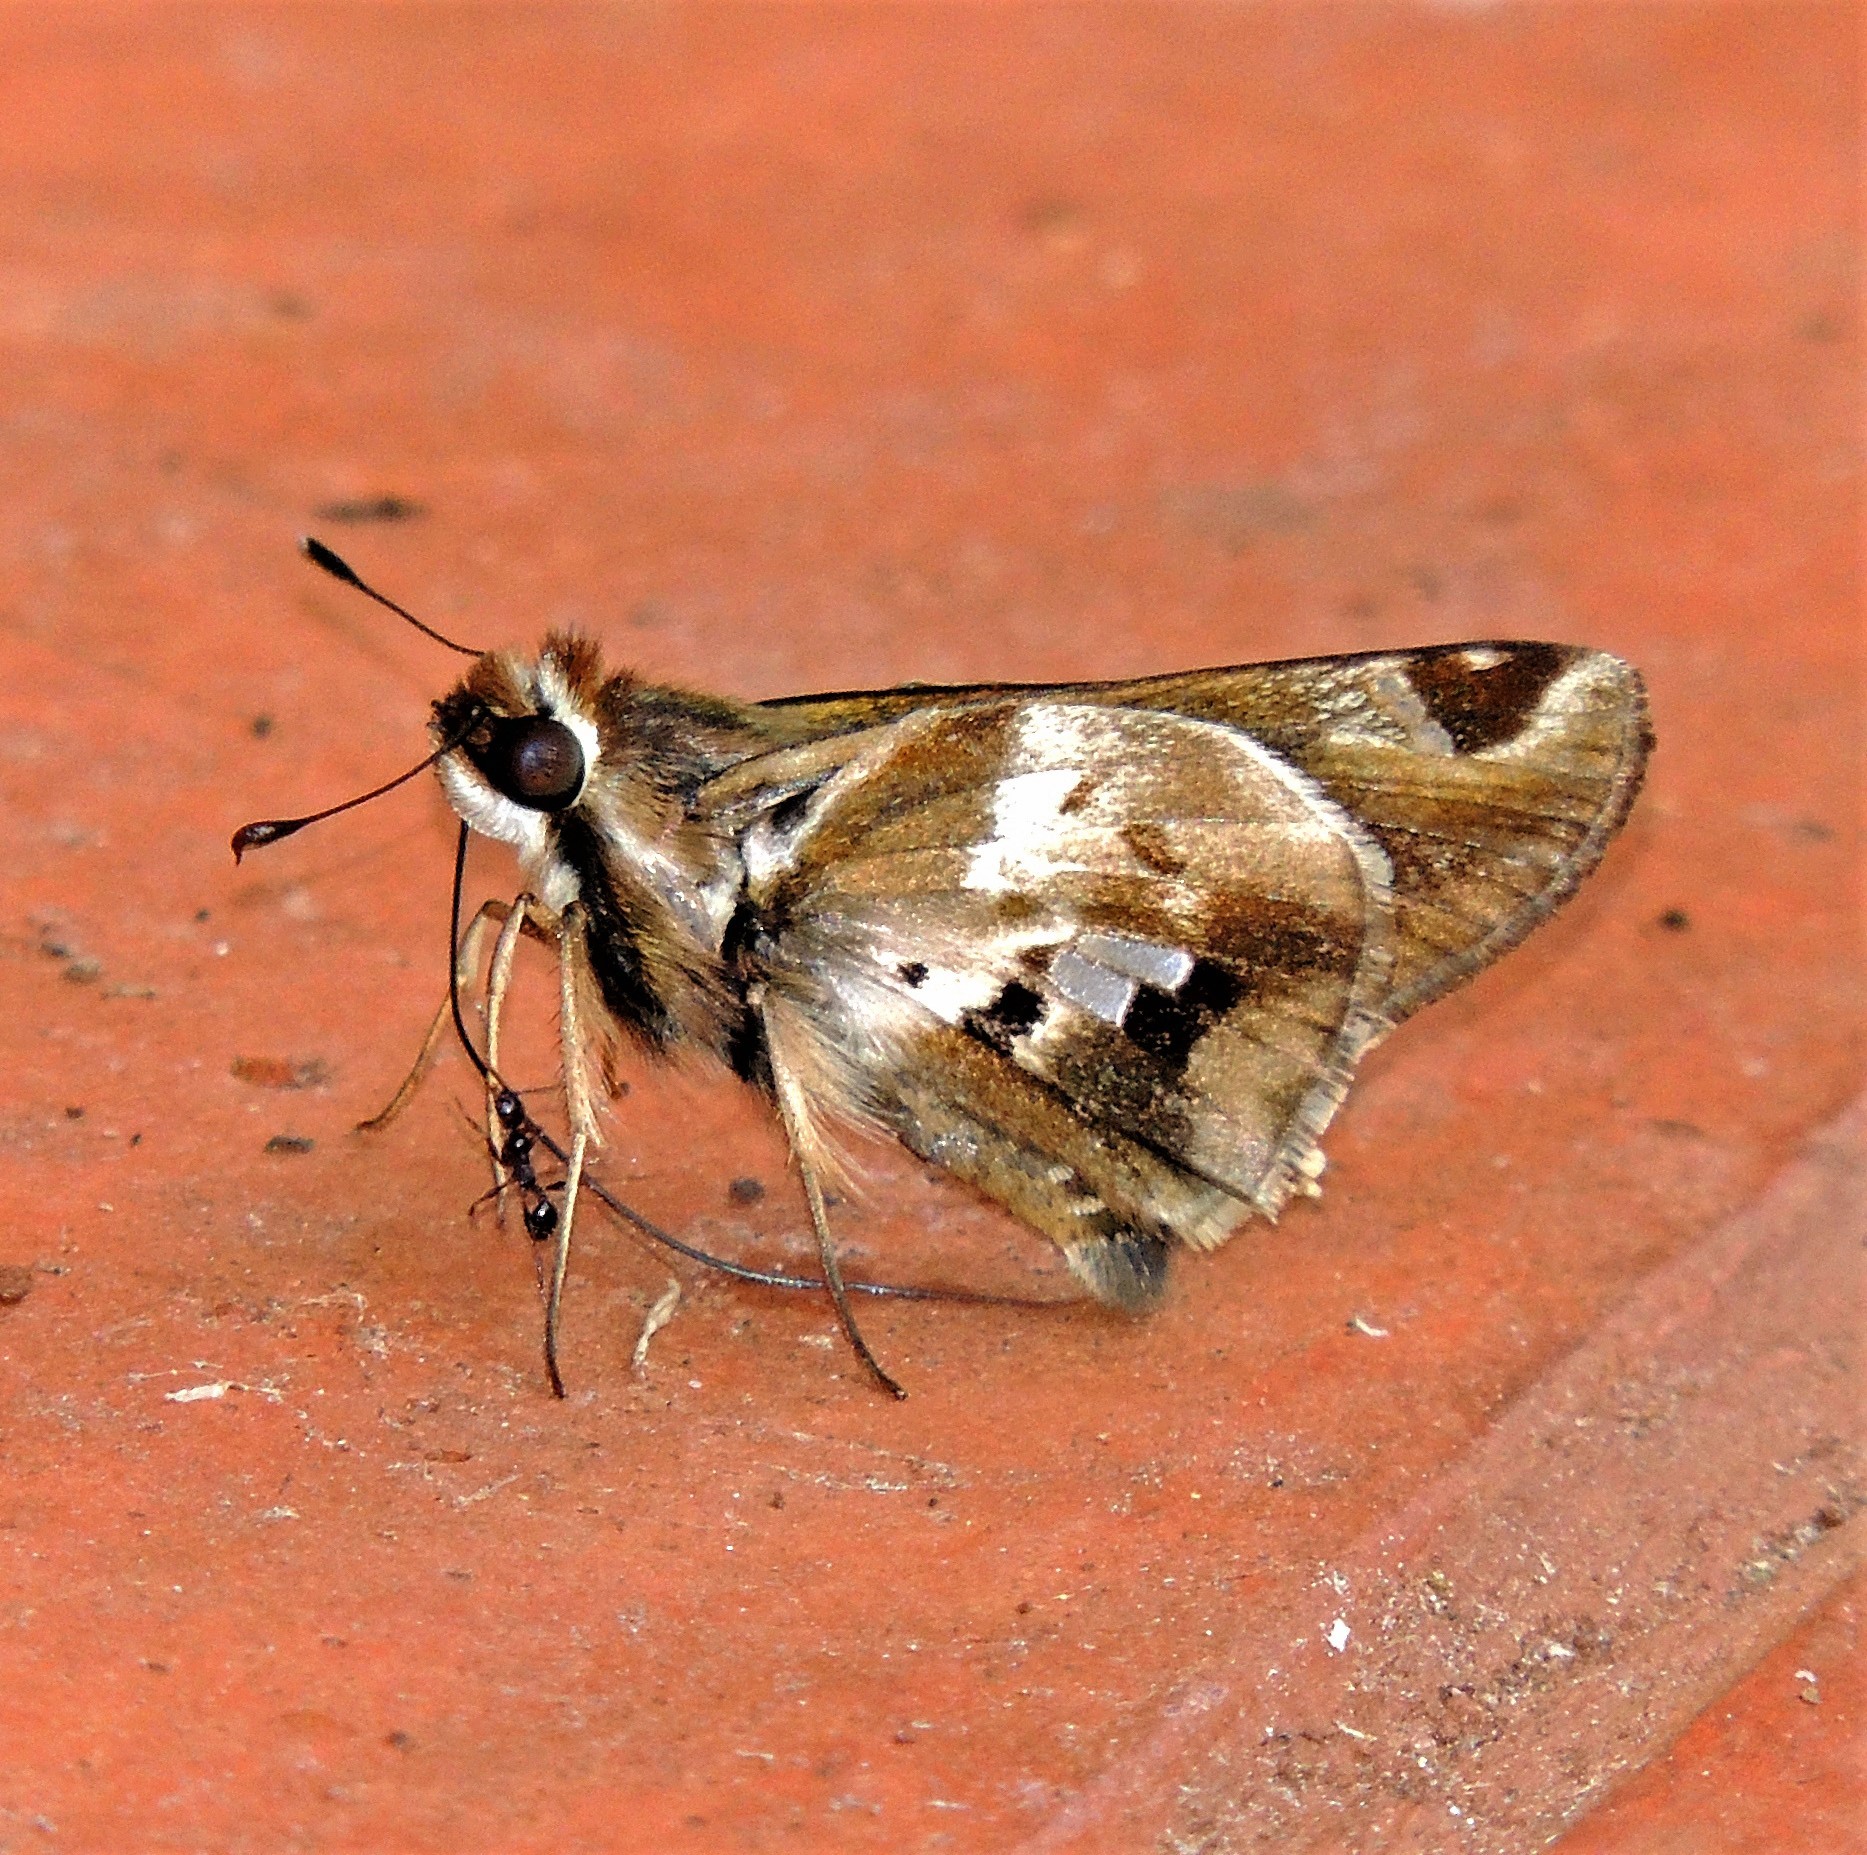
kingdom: Animalia
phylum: Arthropoda
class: Insecta
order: Lepidoptera
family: Hesperiidae
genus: Thespieus
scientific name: Thespieus ethemides
